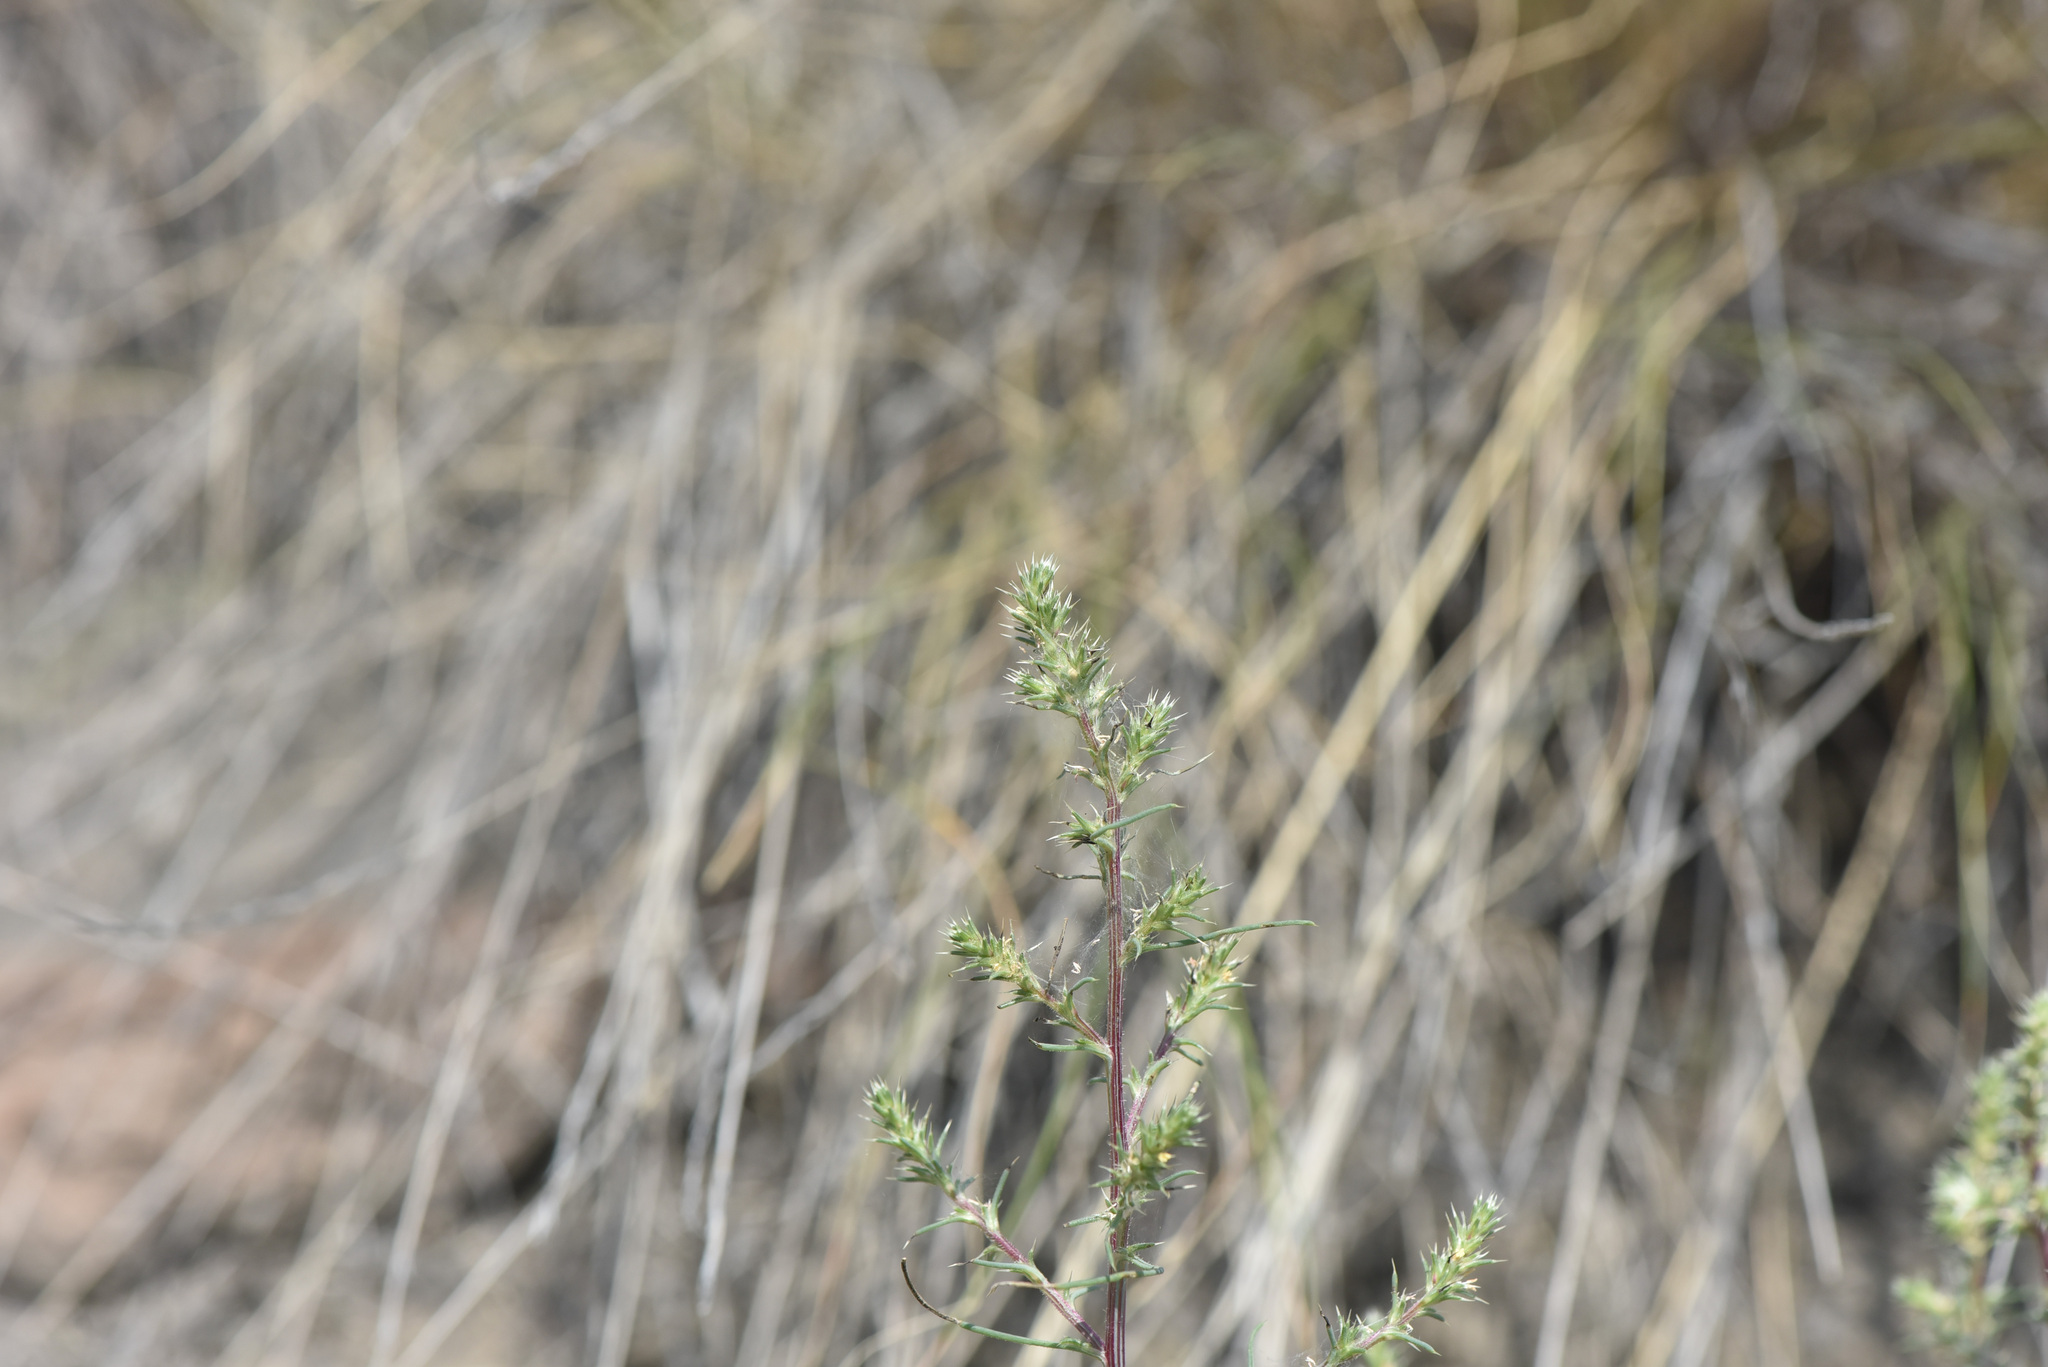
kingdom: Plantae
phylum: Tracheophyta
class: Magnoliopsida
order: Caryophyllales
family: Amaranthaceae
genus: Salsola
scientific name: Salsola tragus
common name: Prickly russian thistle
